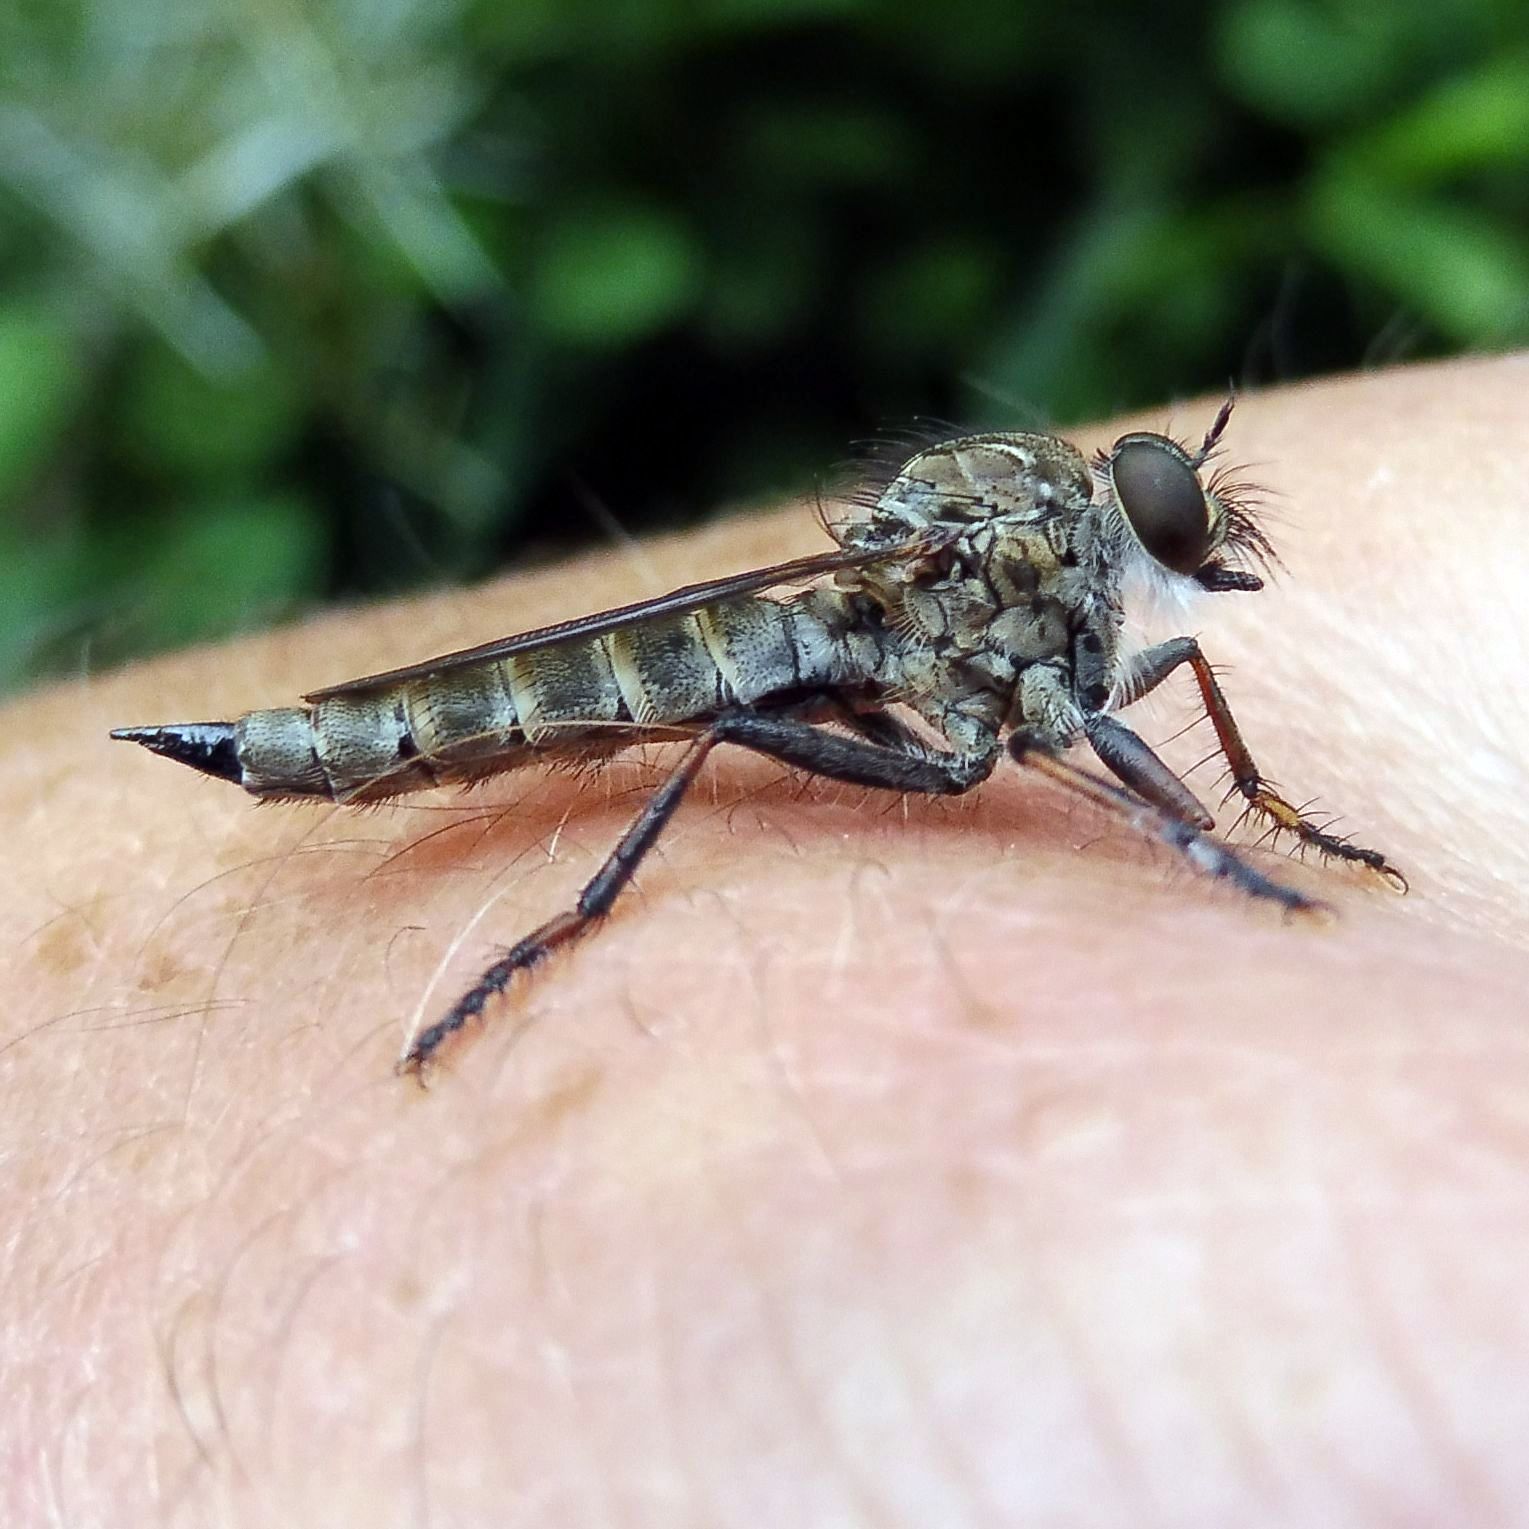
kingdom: Animalia
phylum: Arthropoda
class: Insecta
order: Diptera
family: Asilidae
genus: Machimus
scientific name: Machimus atricapillus
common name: Kite-tailed robberfly
